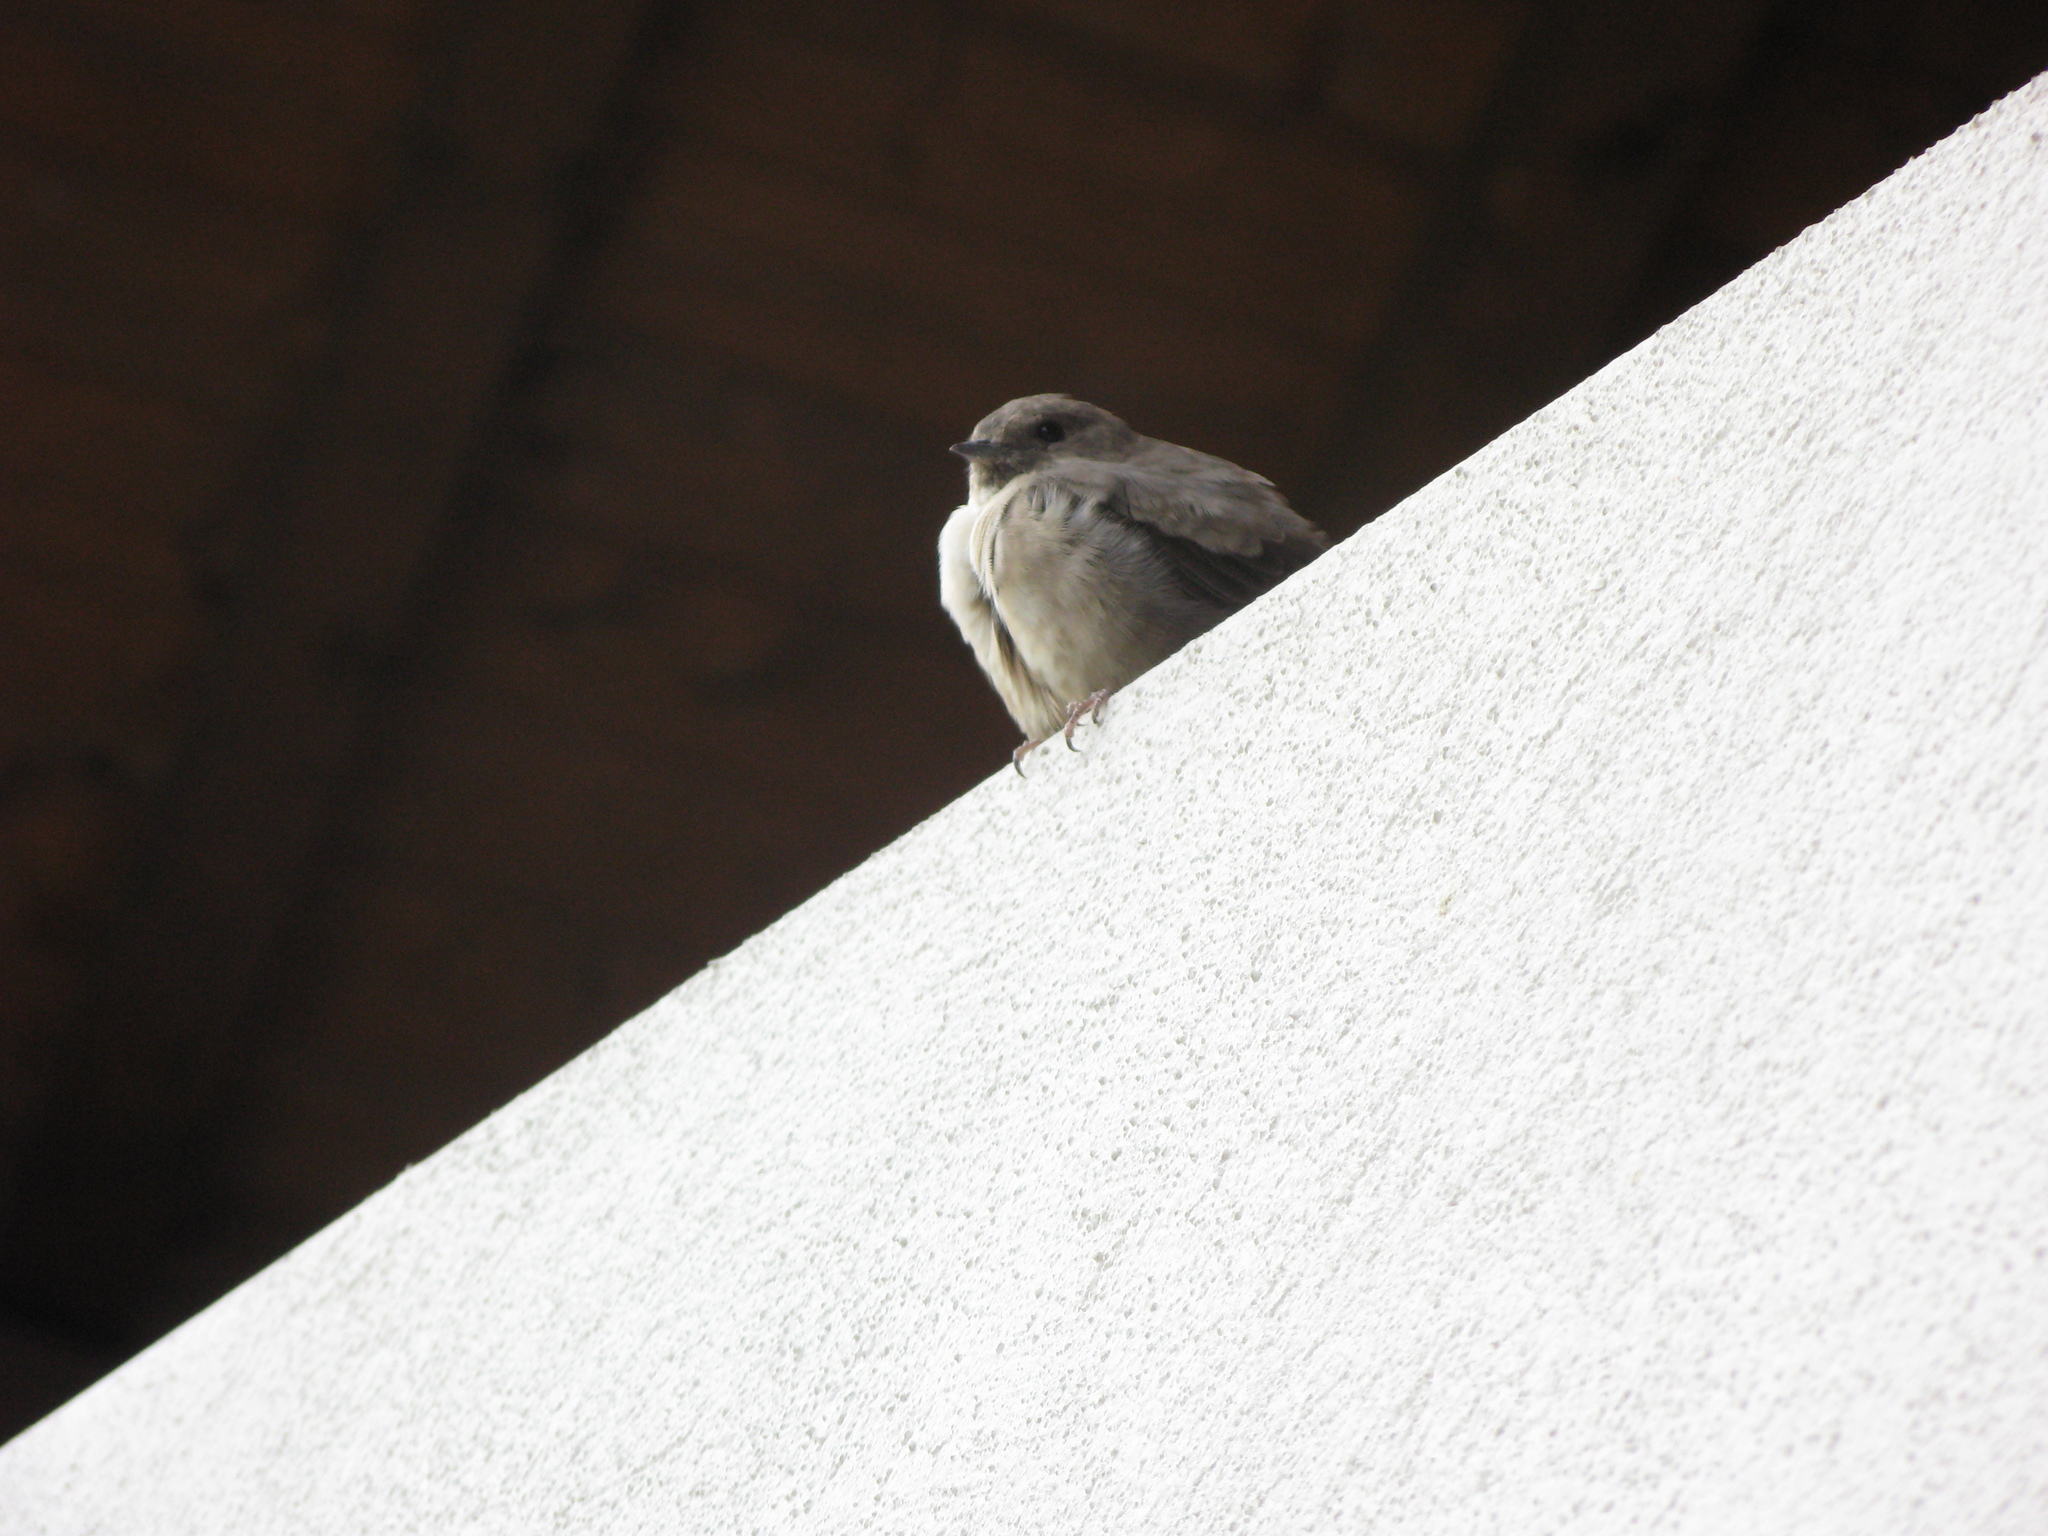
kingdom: Animalia
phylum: Chordata
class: Aves
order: Passeriformes
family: Hirundinidae
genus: Ptyonoprogne
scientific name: Ptyonoprogne rupestris
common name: Eurasian crag martin
